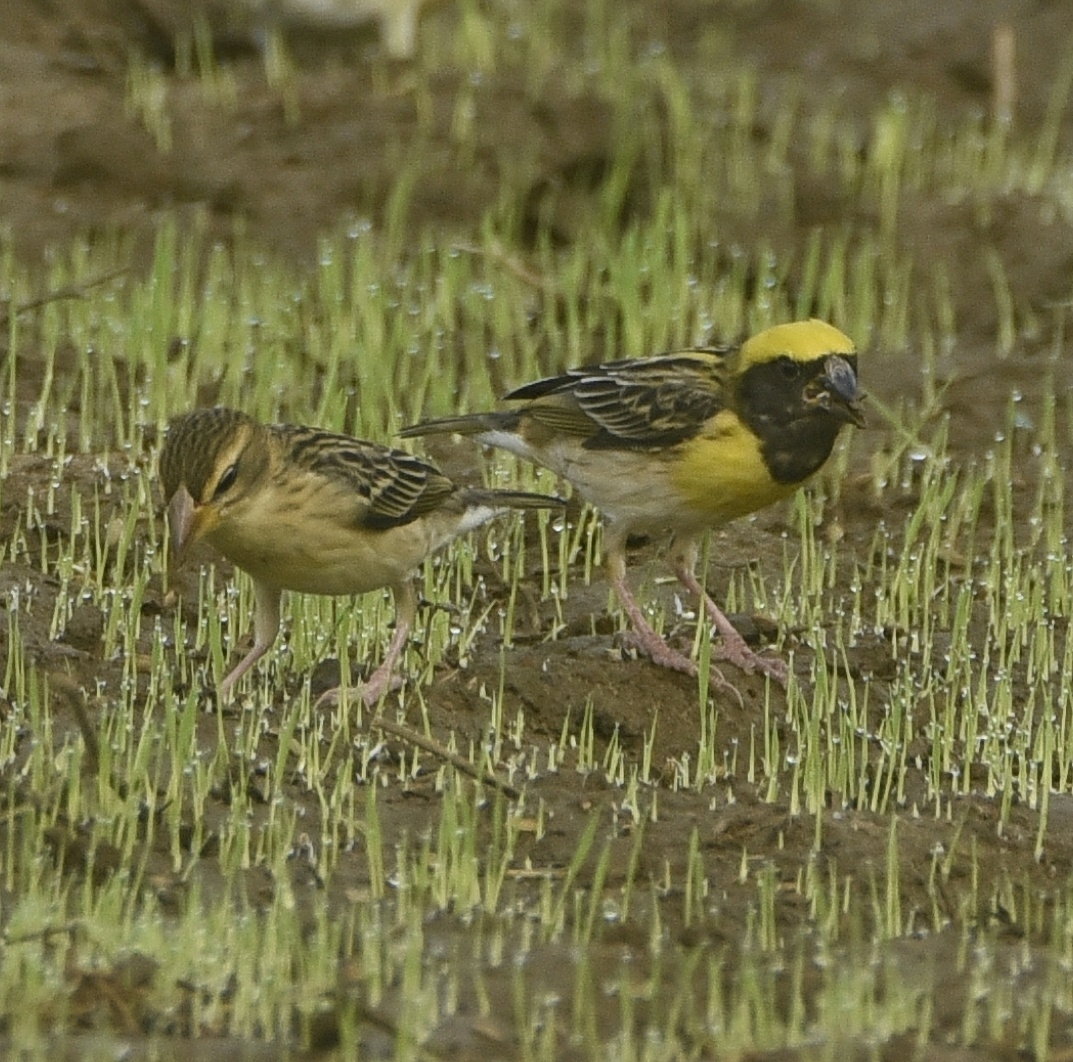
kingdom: Animalia
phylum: Chordata
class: Aves
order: Passeriformes
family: Ploceidae
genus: Ploceus
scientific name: Ploceus philippinus
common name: Baya weaver
